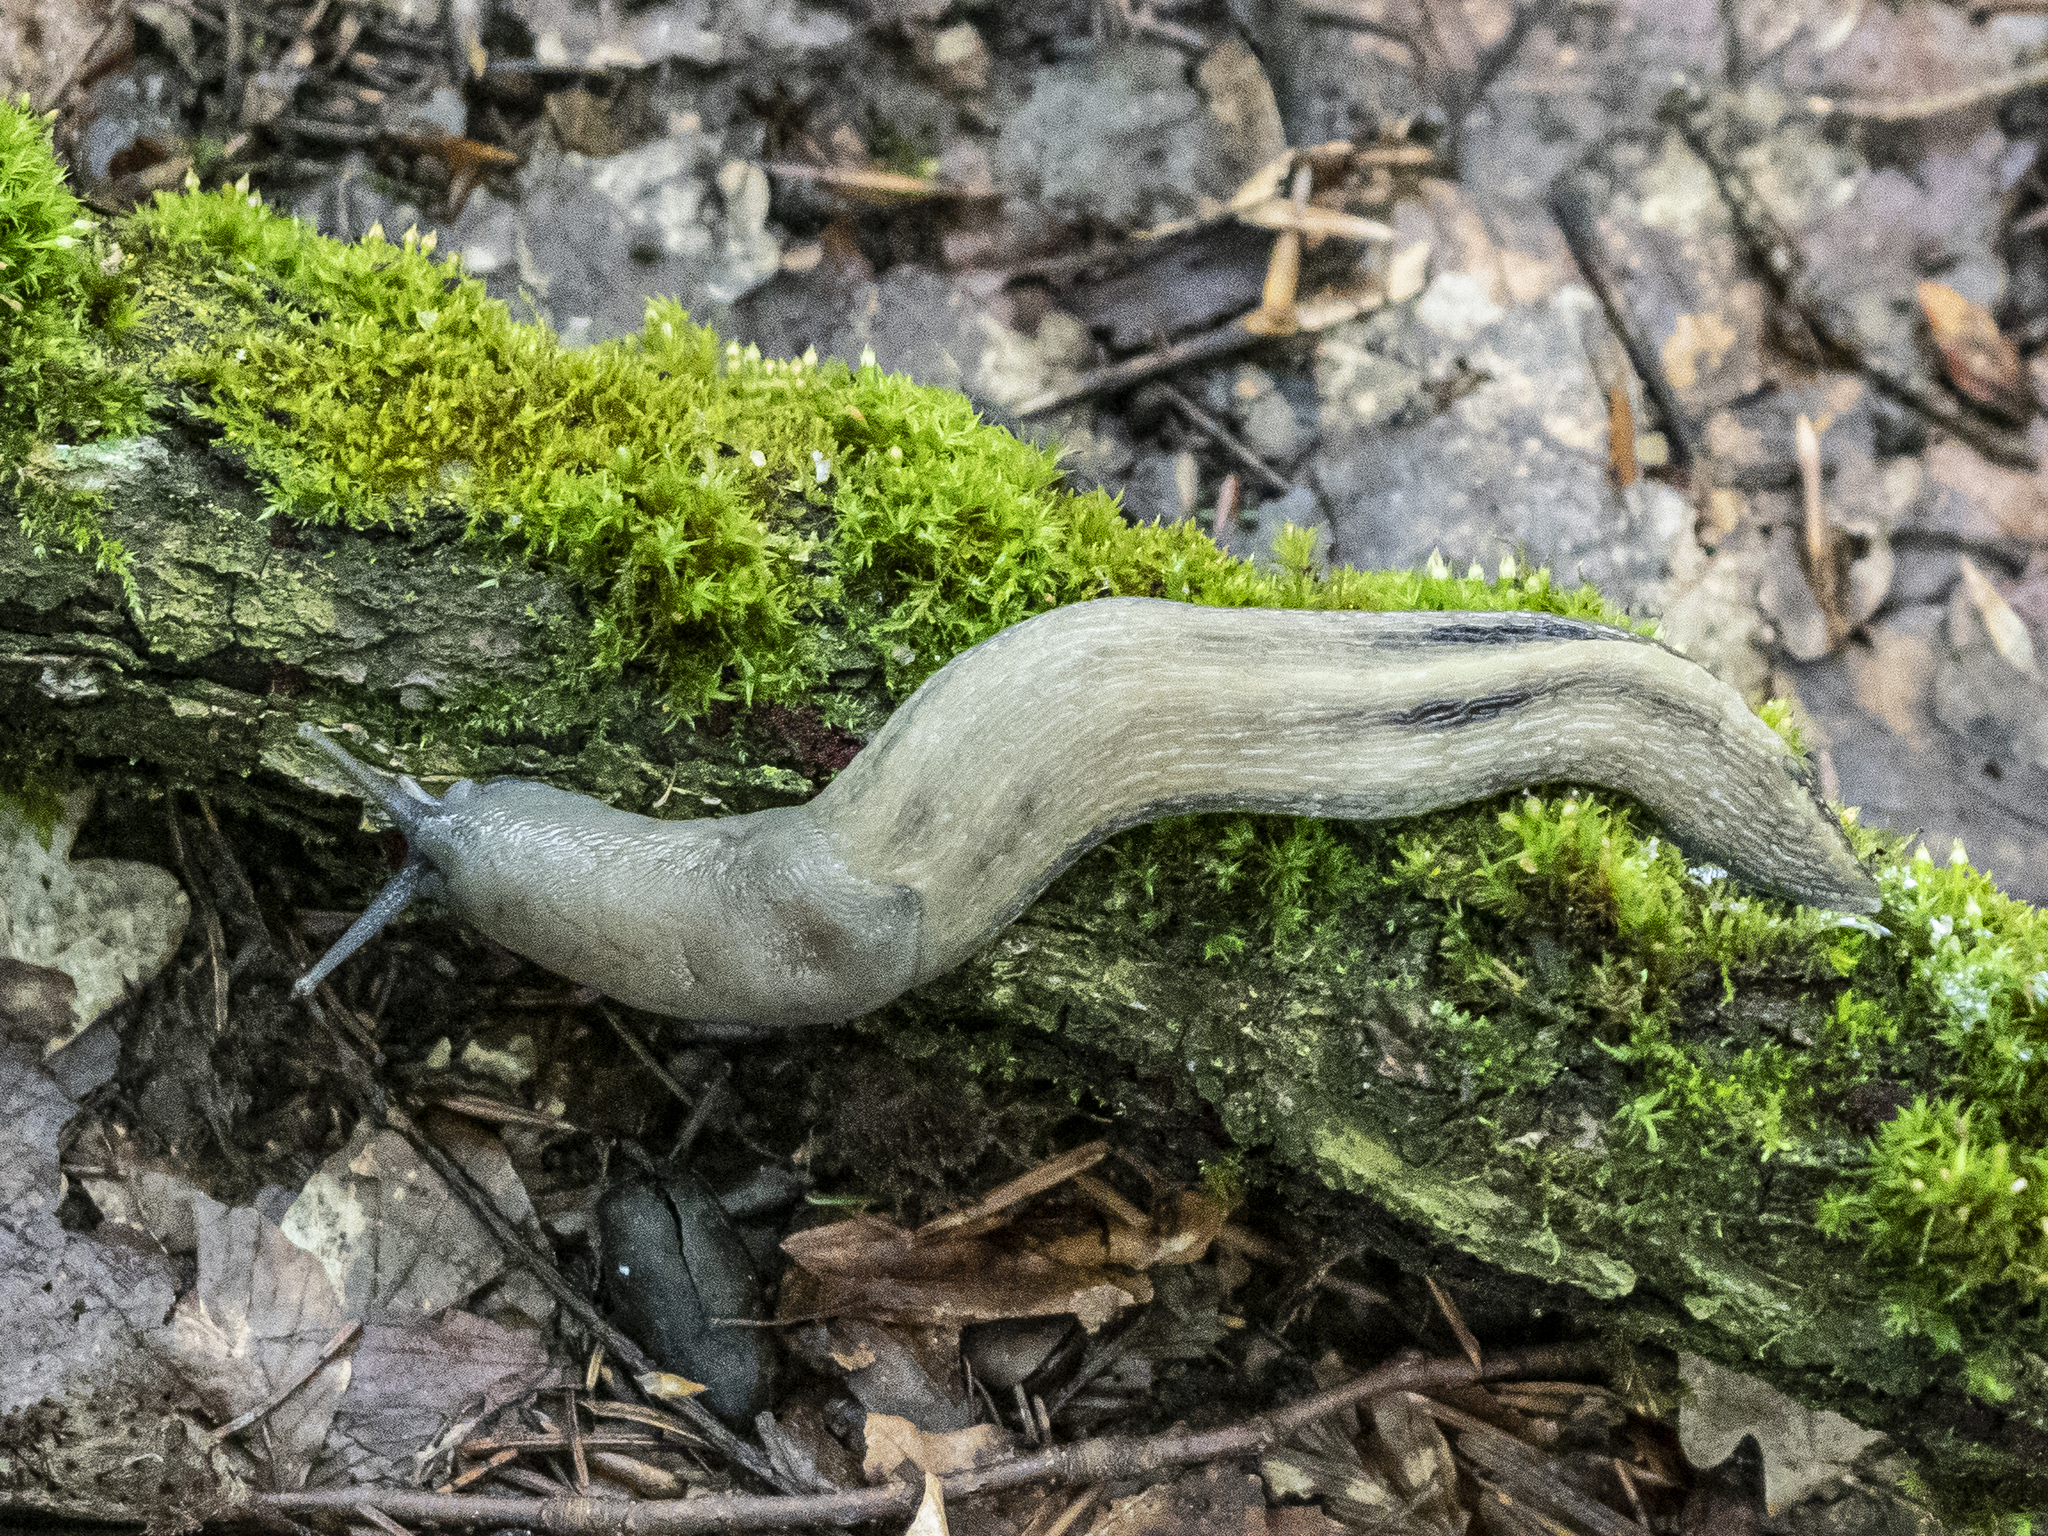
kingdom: Animalia
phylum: Mollusca
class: Gastropoda
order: Stylommatophora
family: Limacidae
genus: Limax
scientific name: Limax cinereoniger
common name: Ash-black slug
